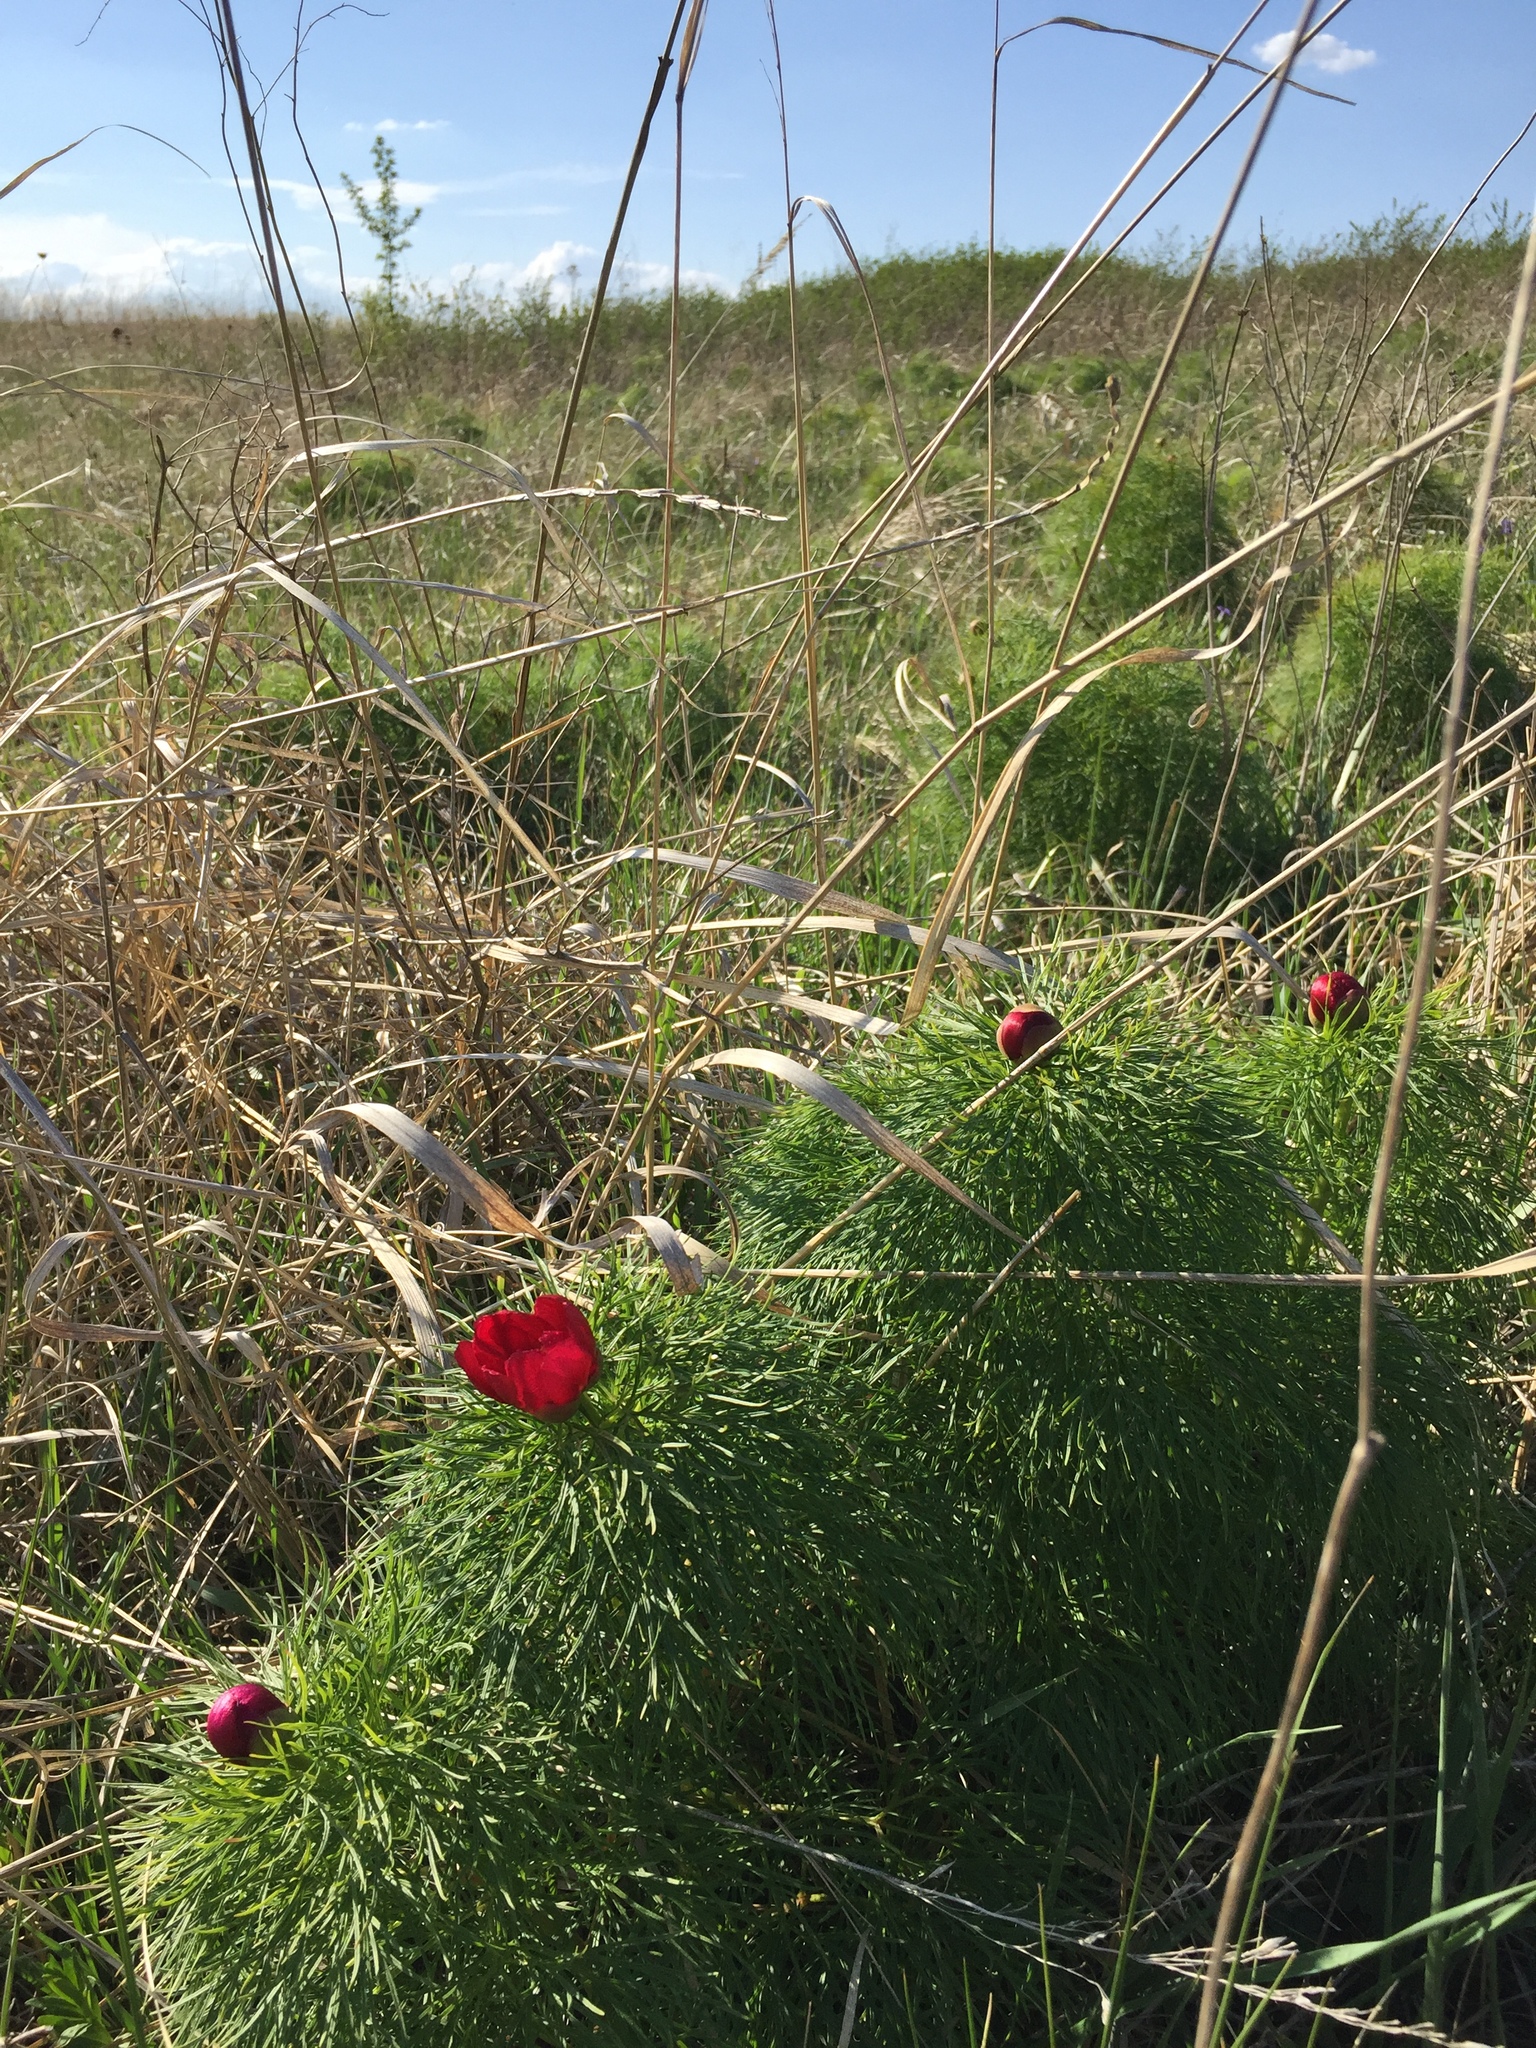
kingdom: Plantae
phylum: Tracheophyta
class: Magnoliopsida
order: Saxifragales
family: Paeoniaceae
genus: Paeonia
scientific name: Paeonia tenuifolia
